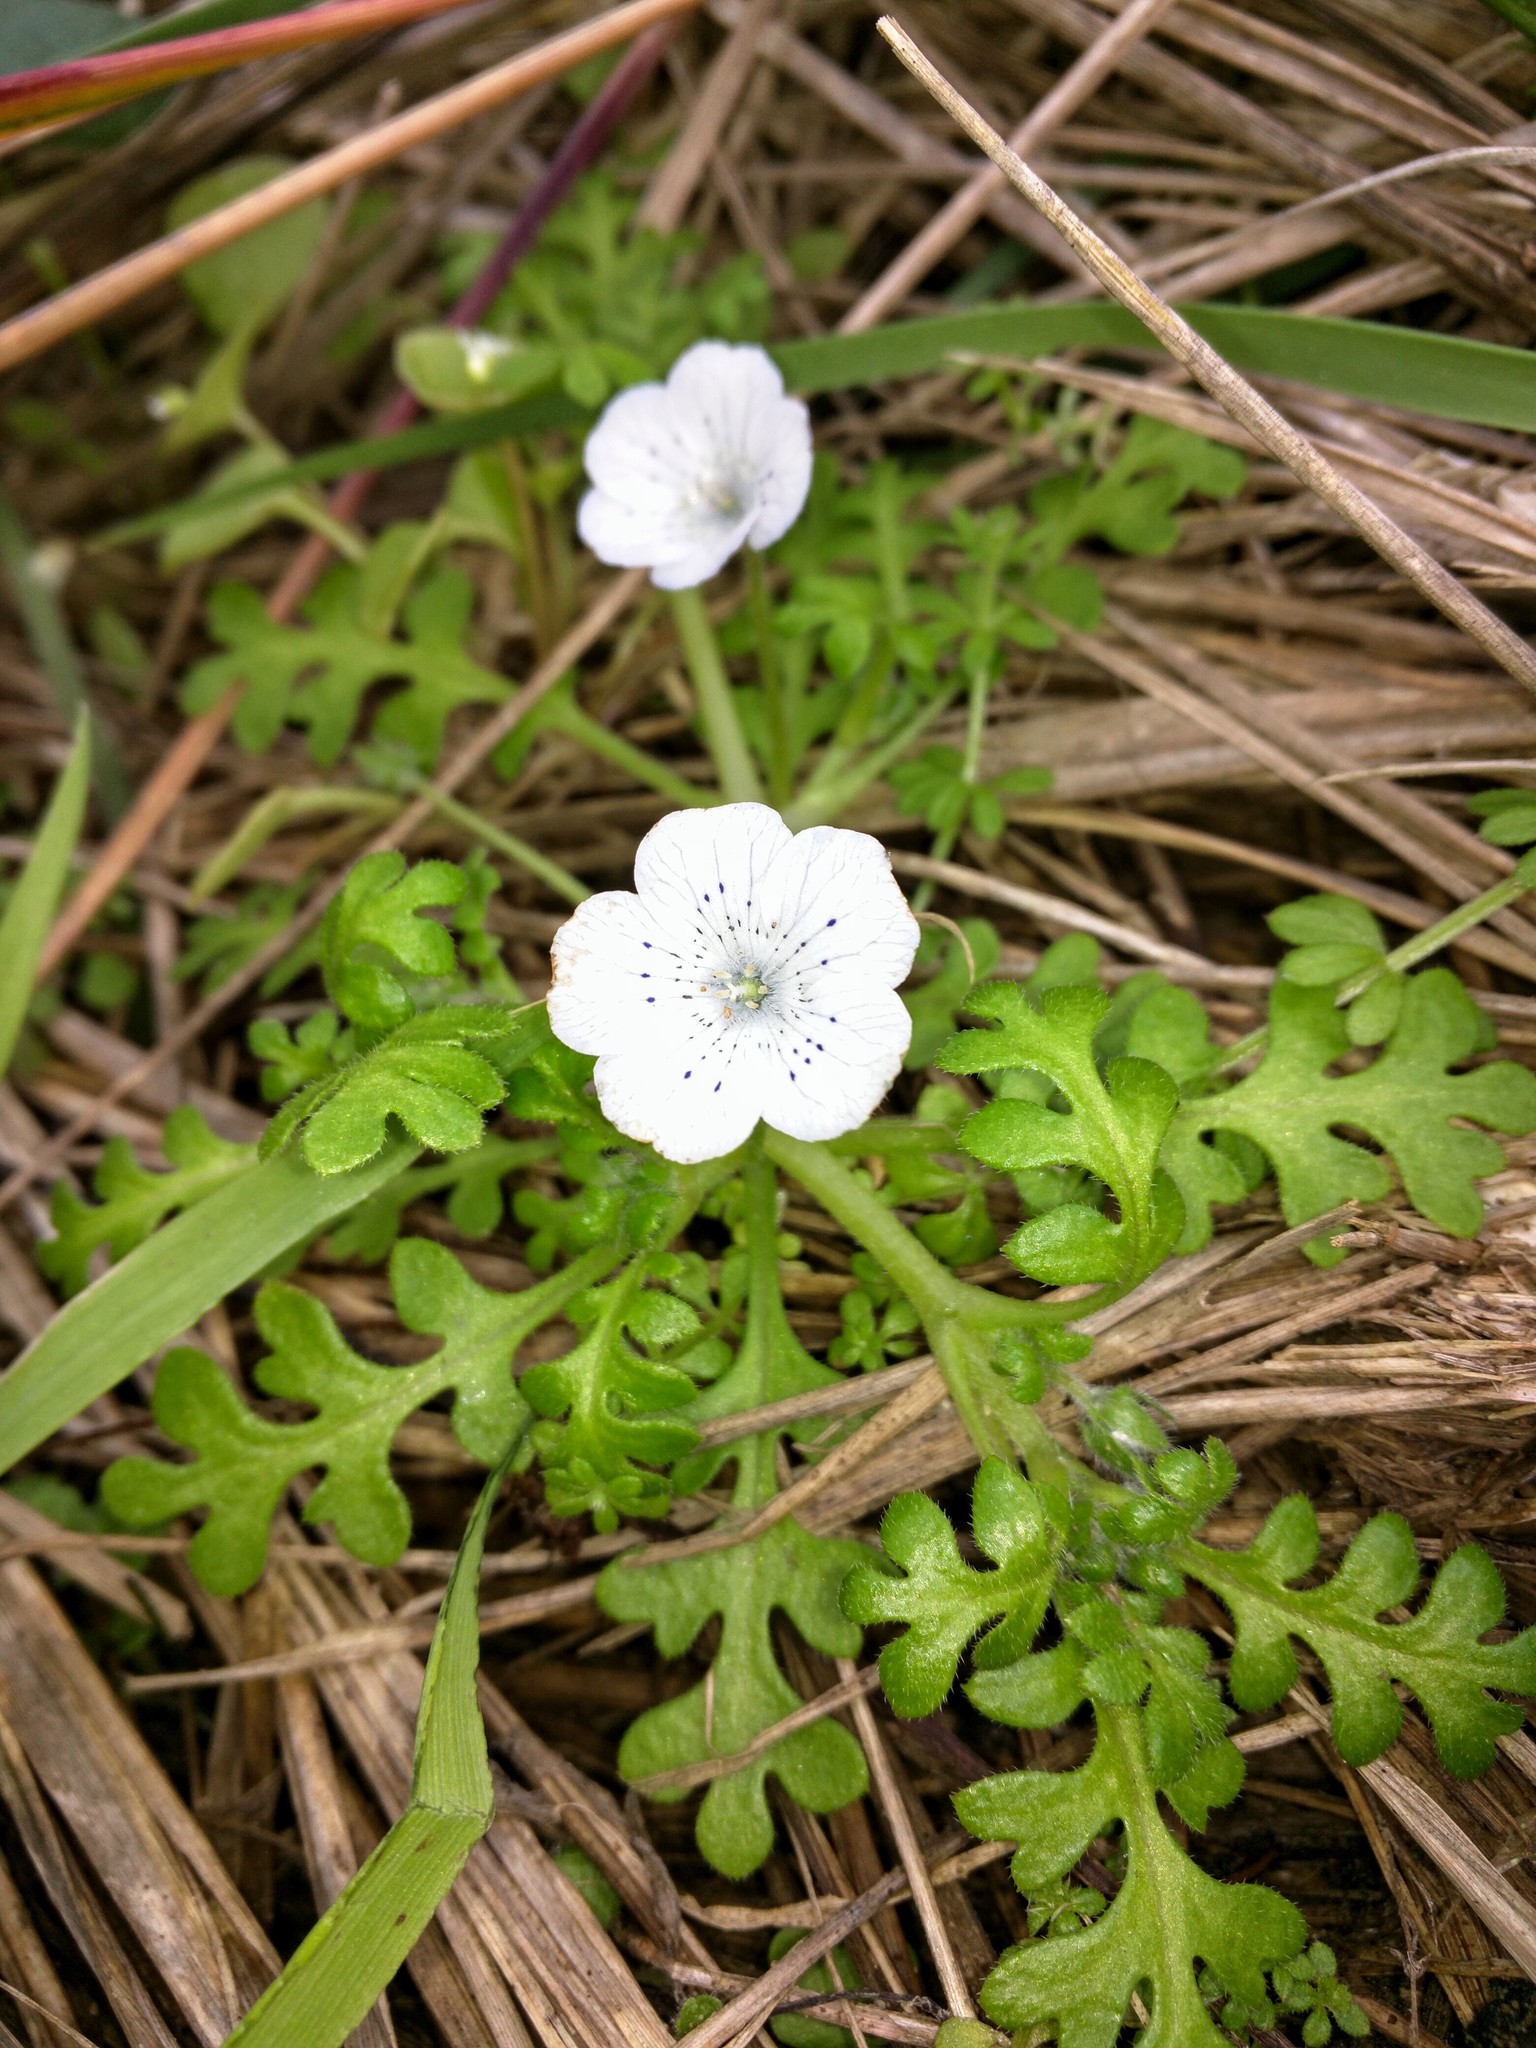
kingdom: Plantae
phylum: Tracheophyta
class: Magnoliopsida
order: Boraginales
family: Hydrophyllaceae
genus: Nemophila
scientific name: Nemophila menziesii
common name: Baby's-blue-eyes
